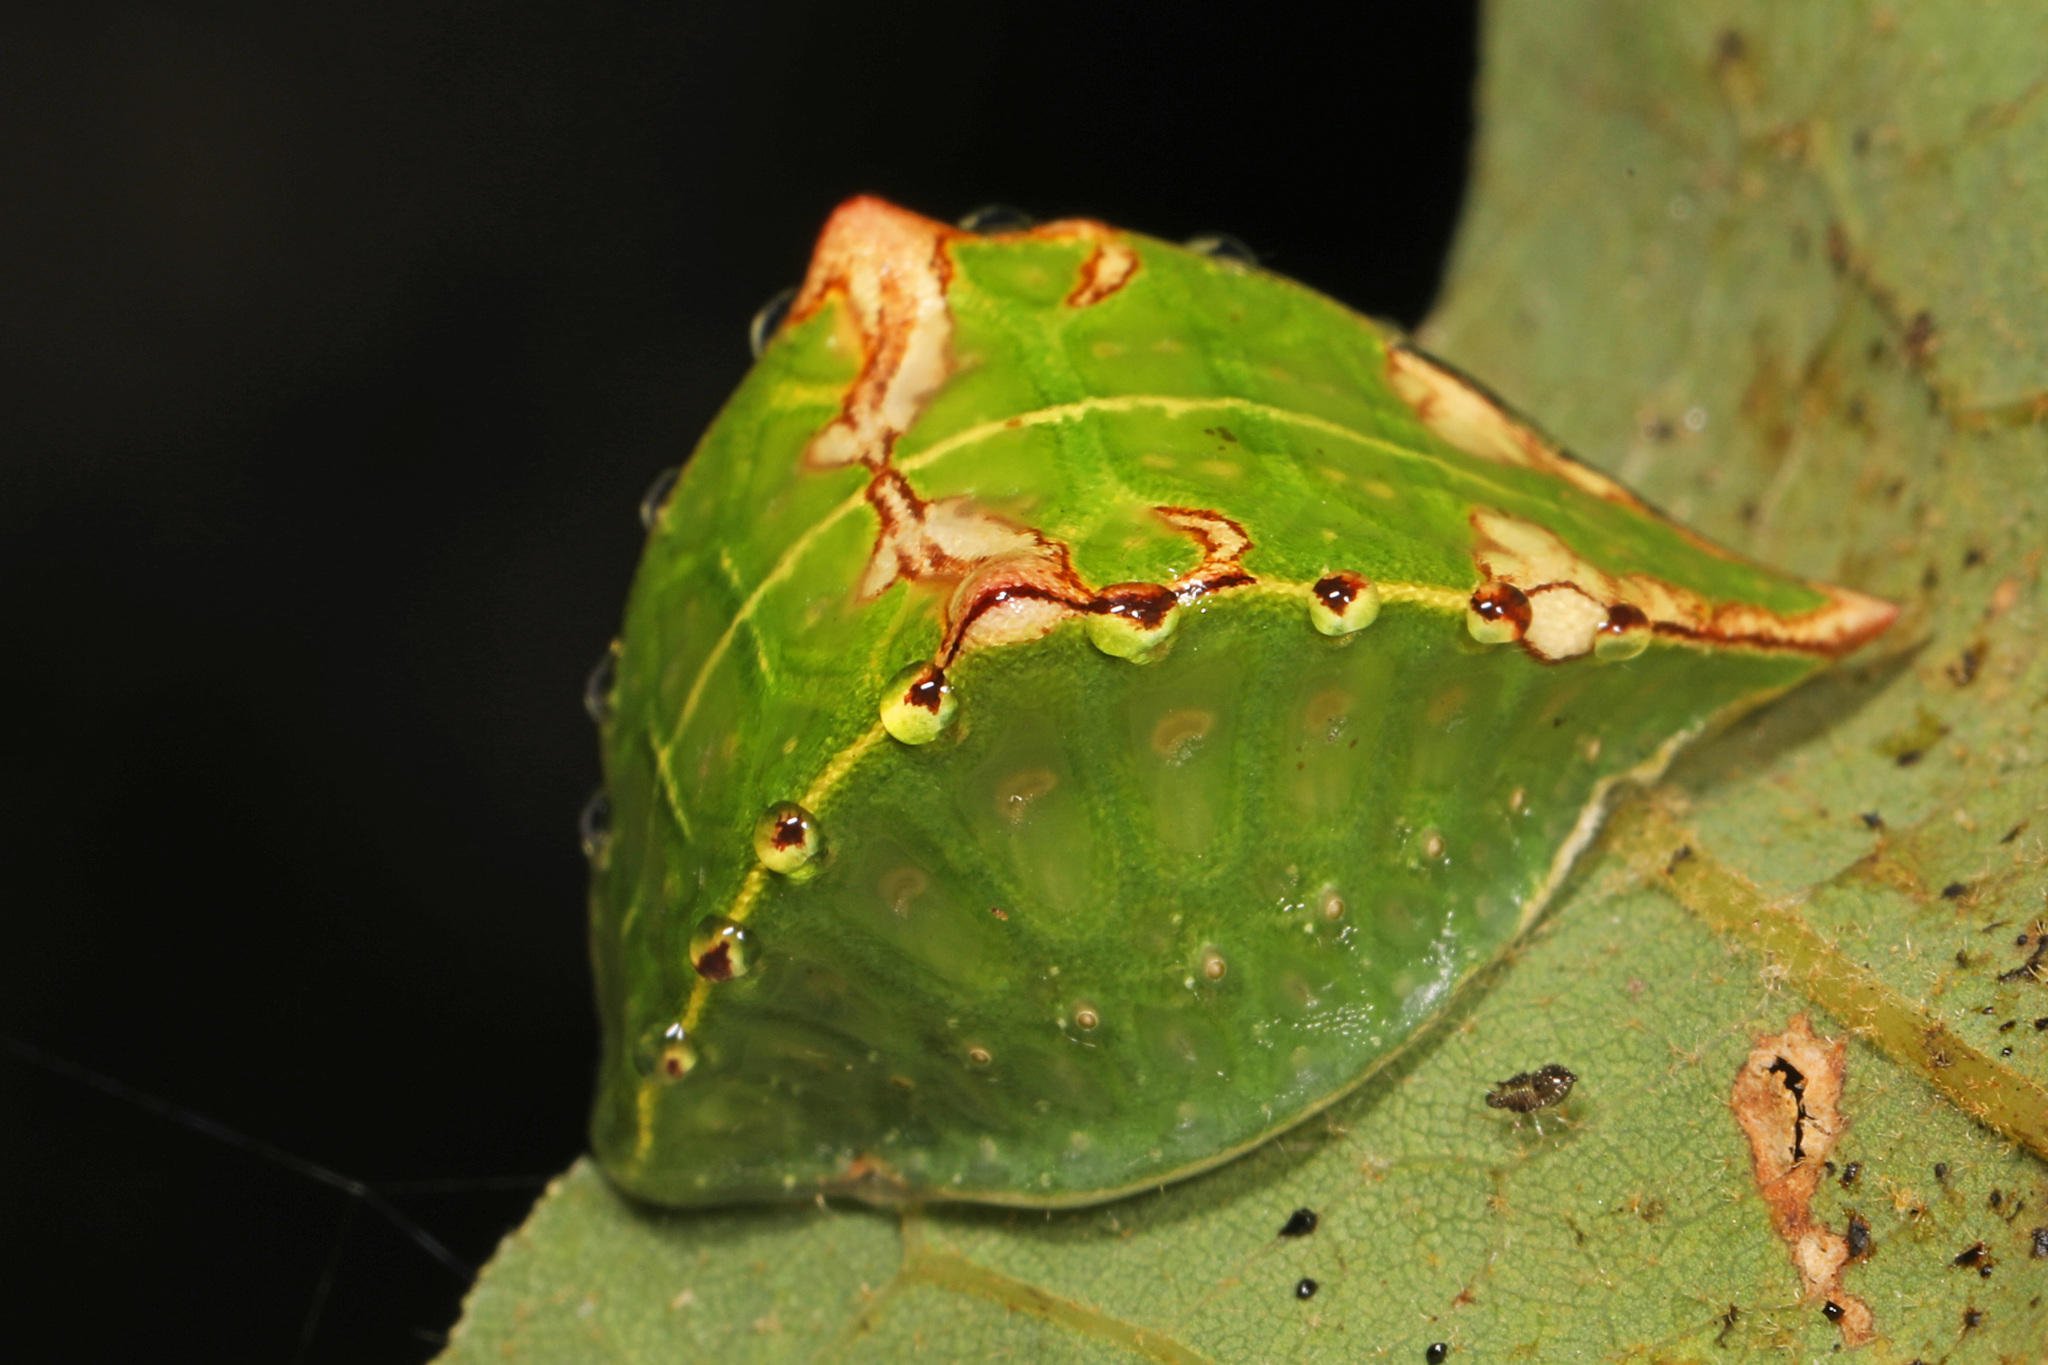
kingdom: Animalia
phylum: Arthropoda
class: Insecta
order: Lepidoptera
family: Limacodidae
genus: Prolimacodes
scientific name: Prolimacodes badia
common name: Skiff moth
